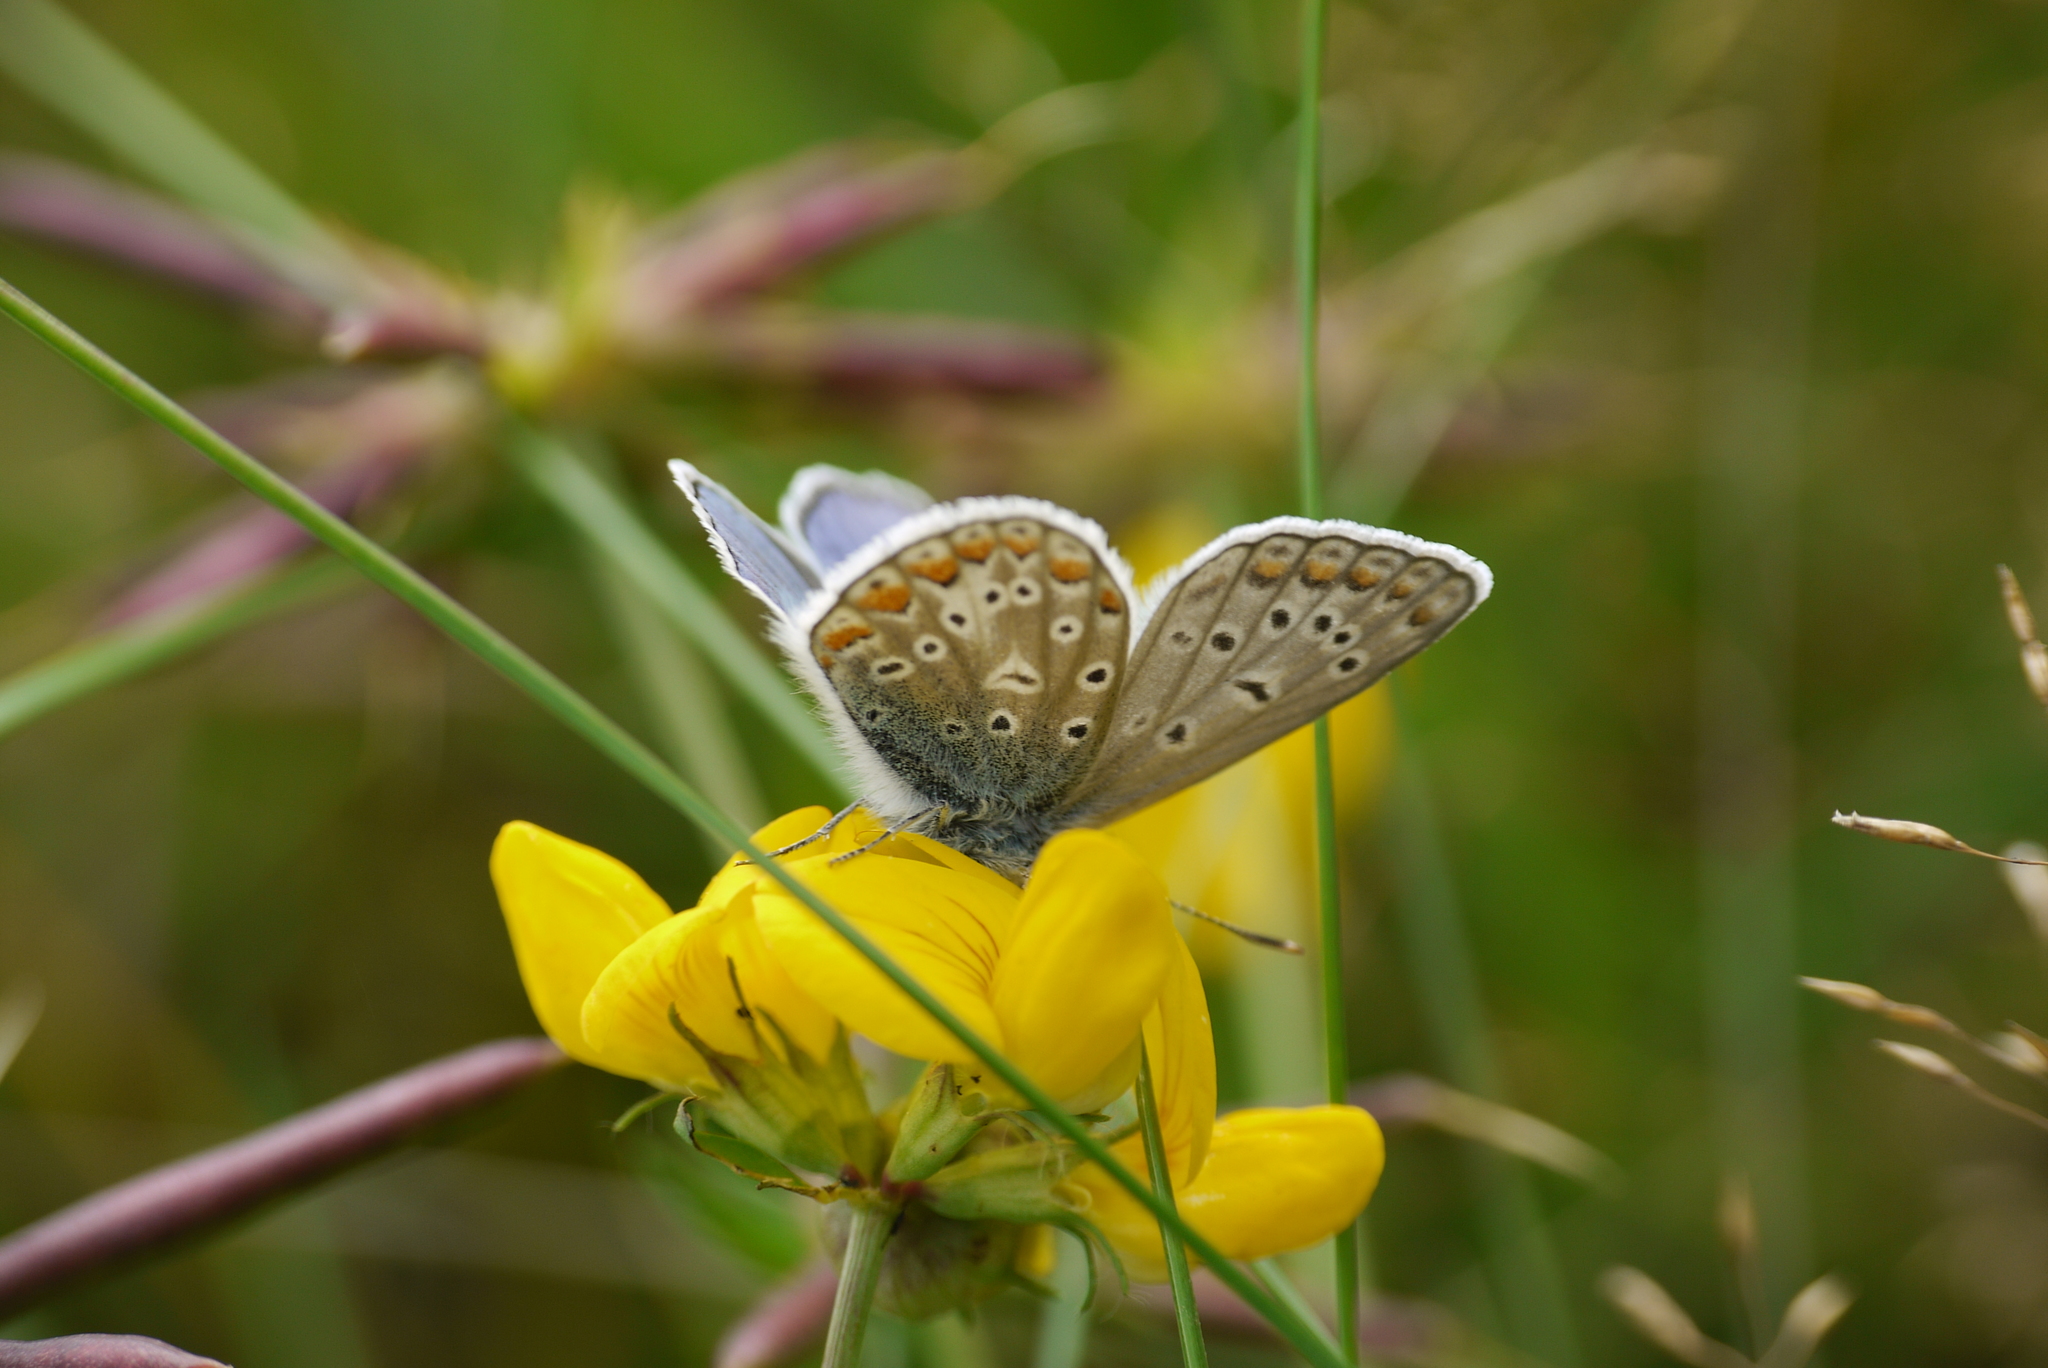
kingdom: Animalia
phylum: Arthropoda
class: Insecta
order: Lepidoptera
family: Lycaenidae
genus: Polyommatus
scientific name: Polyommatus icarus
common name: Common blue
